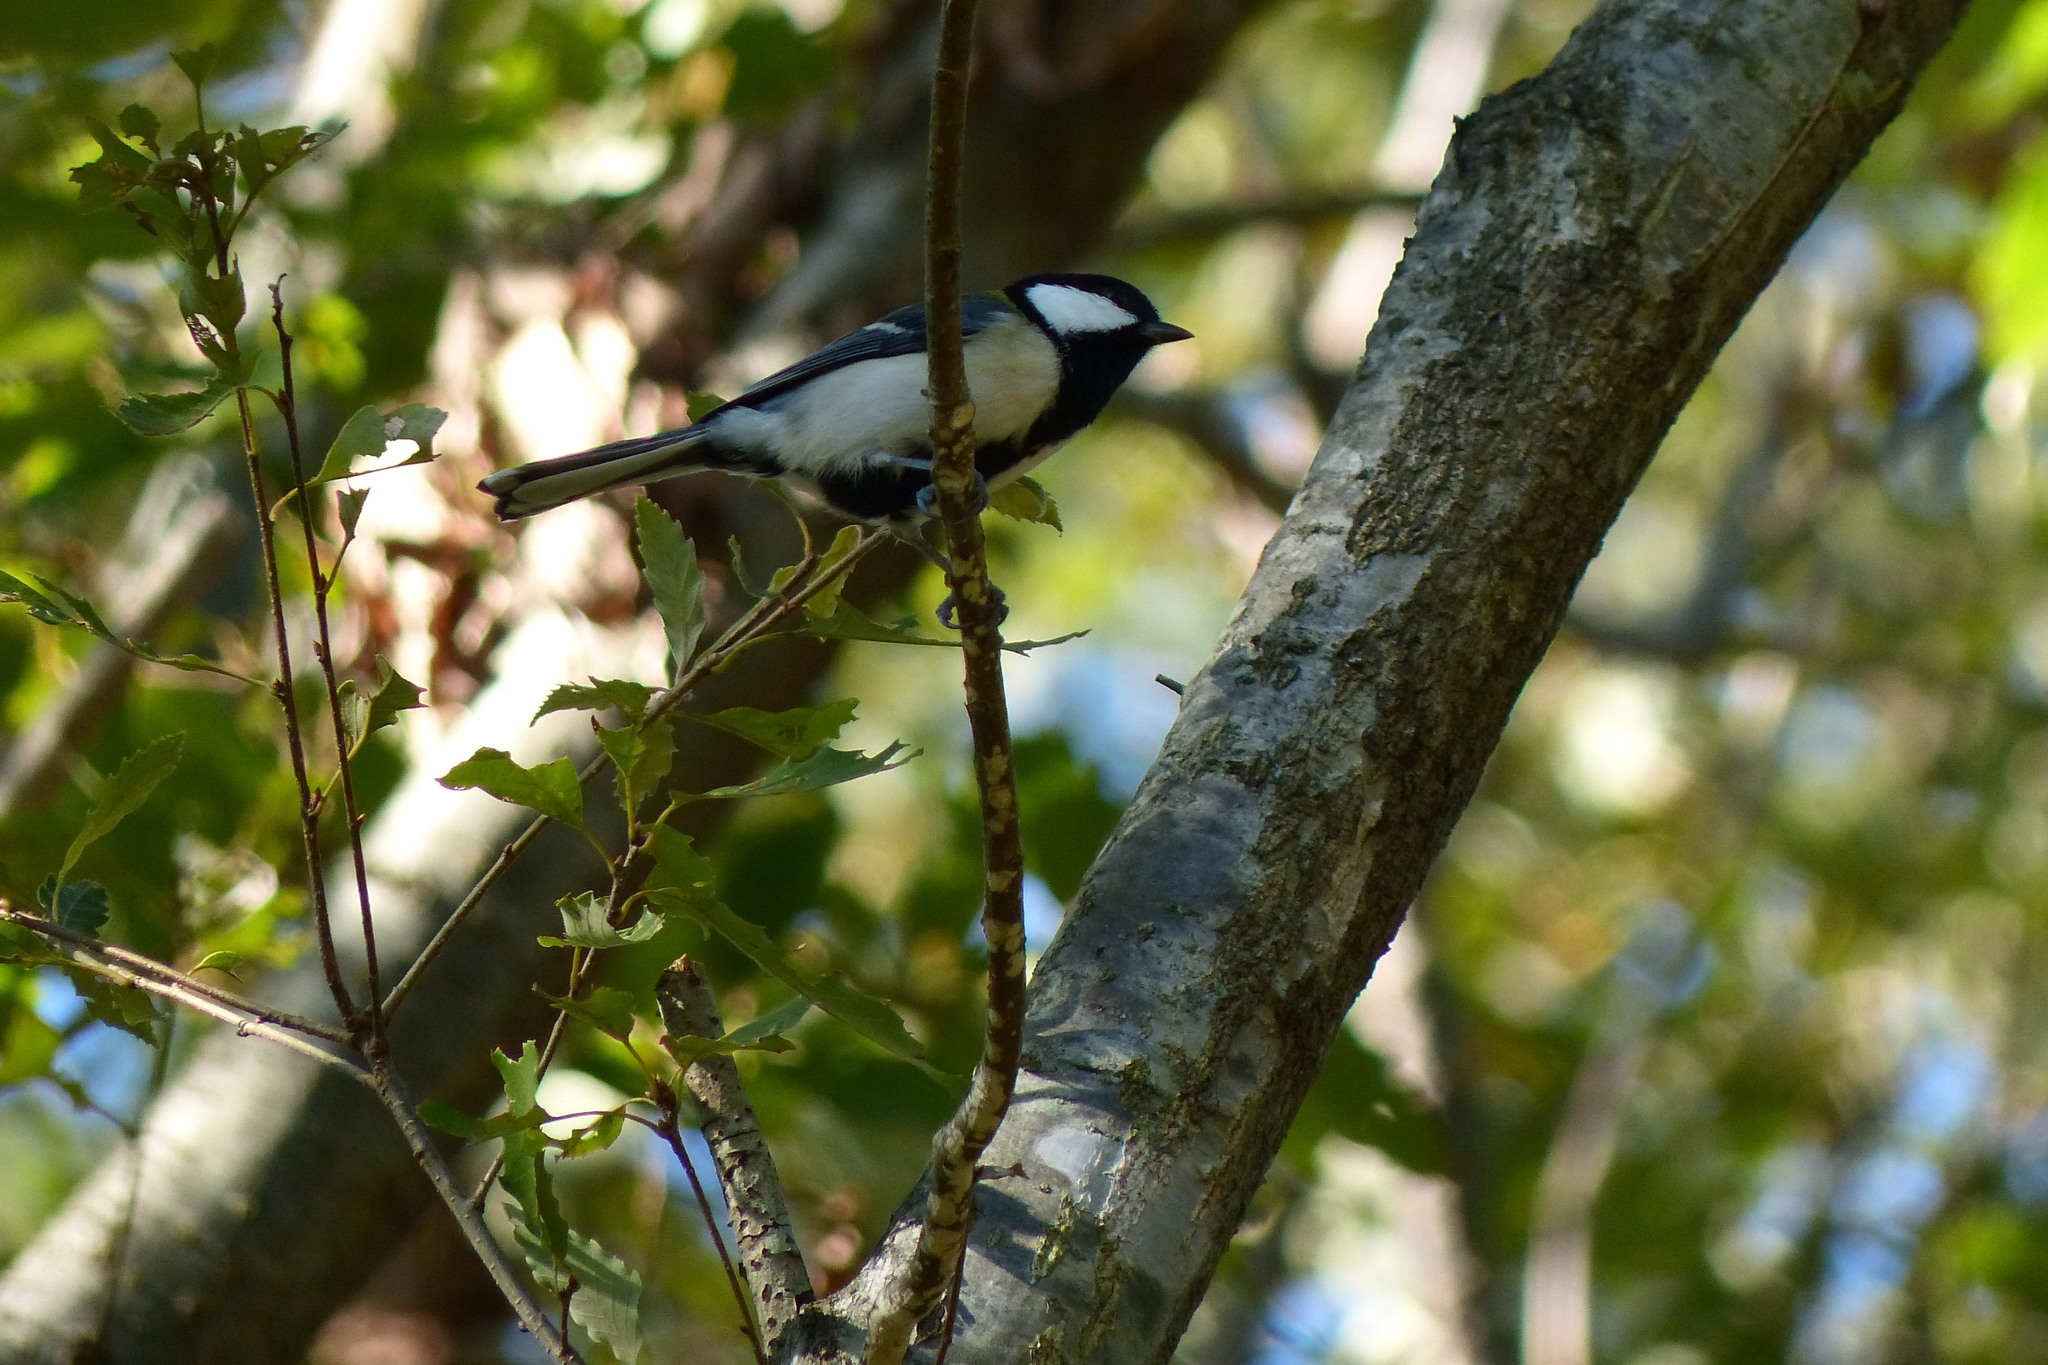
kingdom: Animalia
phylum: Chordata
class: Aves
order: Passeriformes
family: Paridae
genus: Parus
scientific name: Parus minor
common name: Japanese tit
